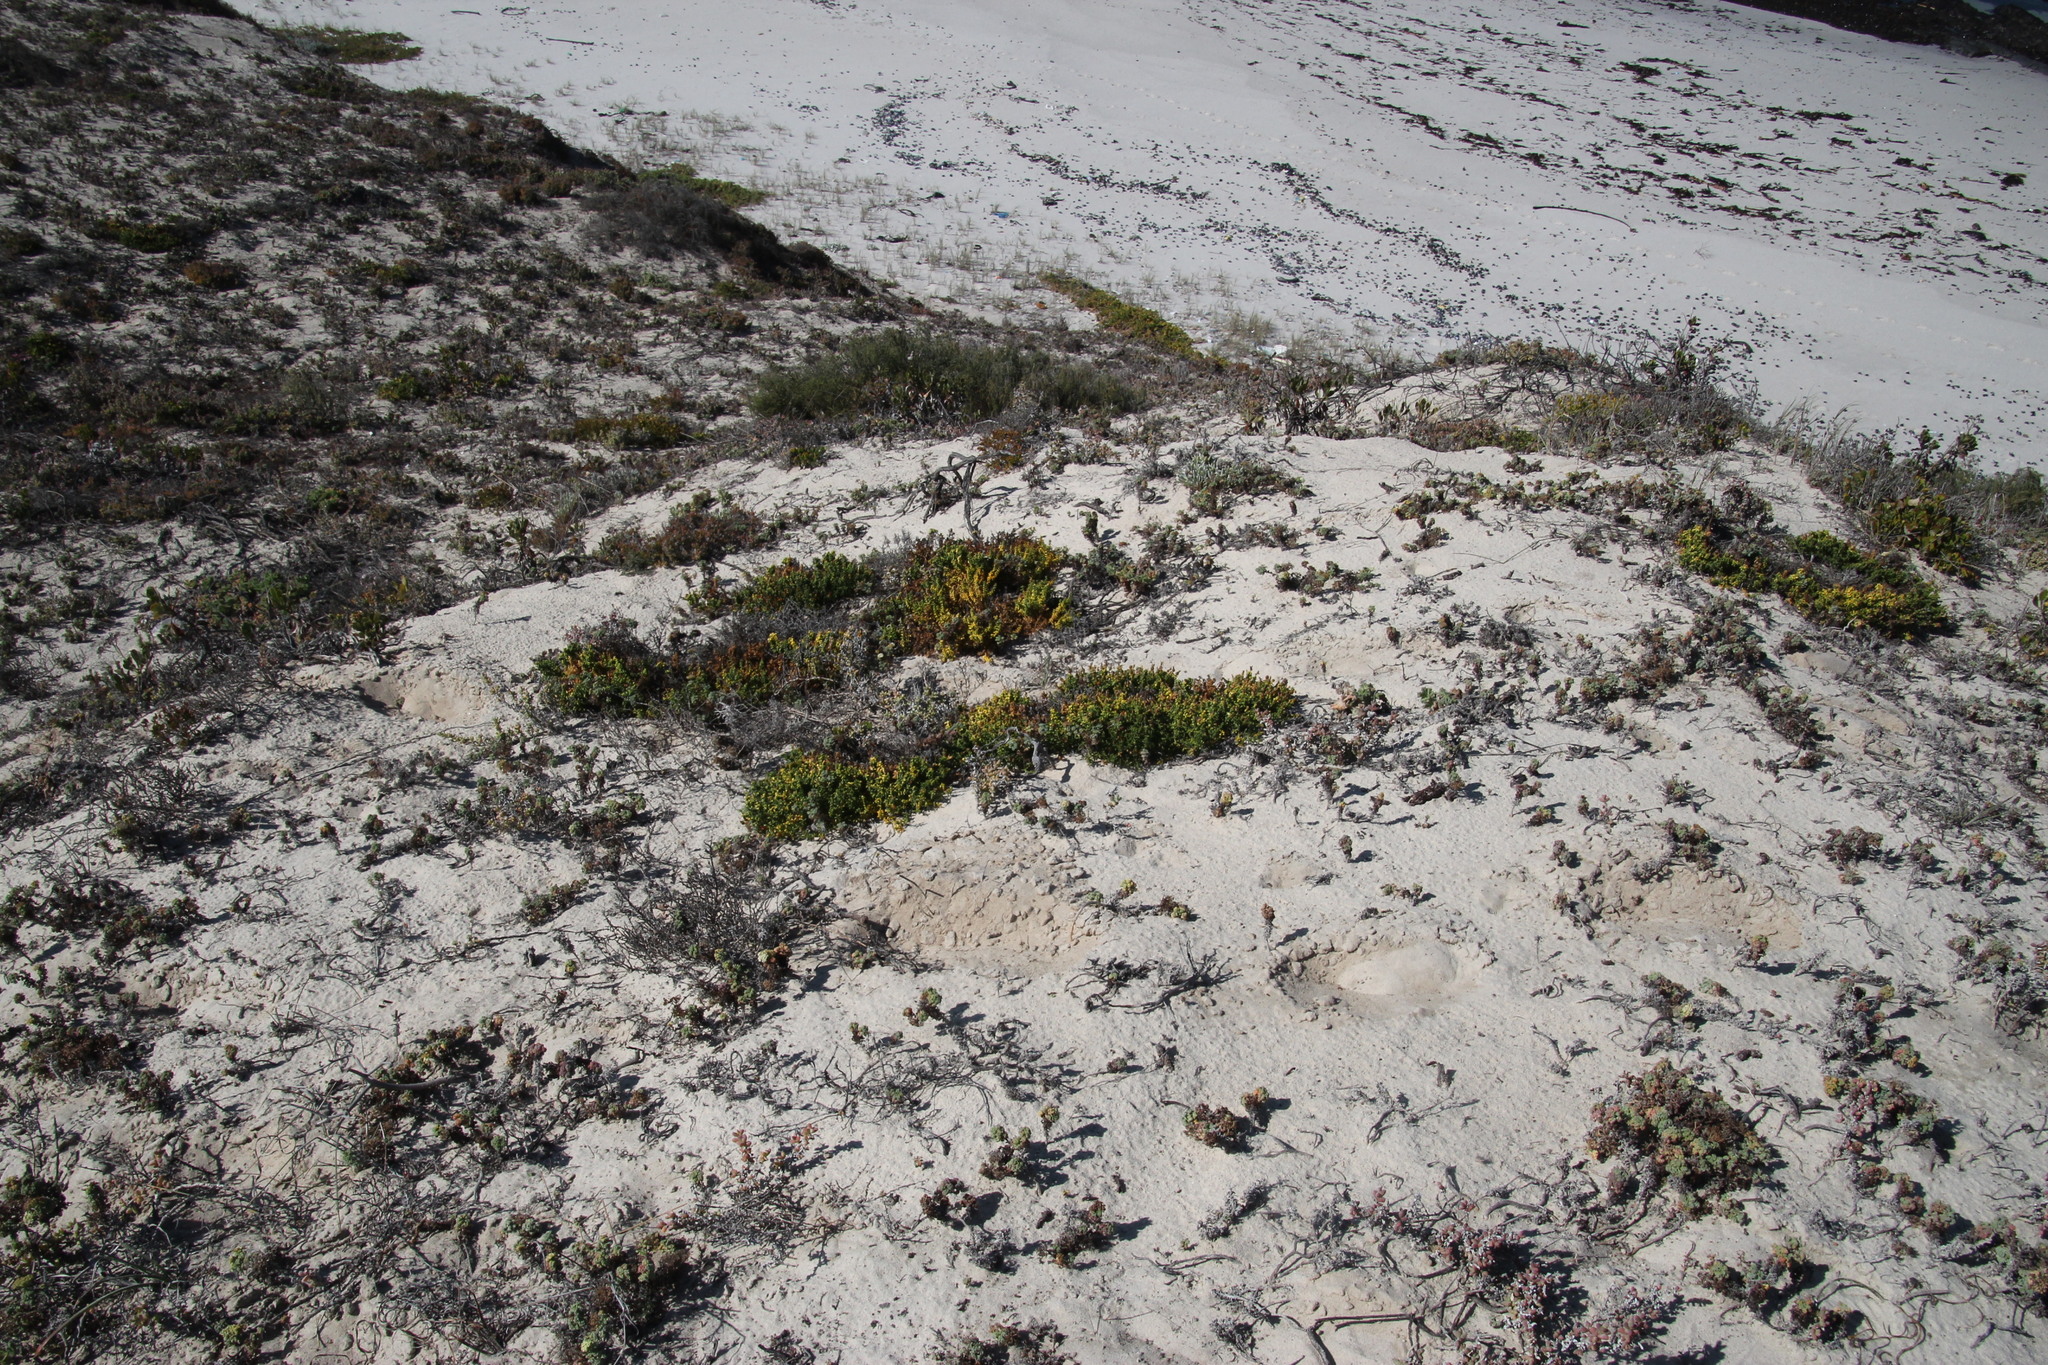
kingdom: Plantae
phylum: Tracheophyta
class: Magnoliopsida
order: Gentianales
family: Gentianaceae
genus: Chironia
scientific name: Chironia baccifera
